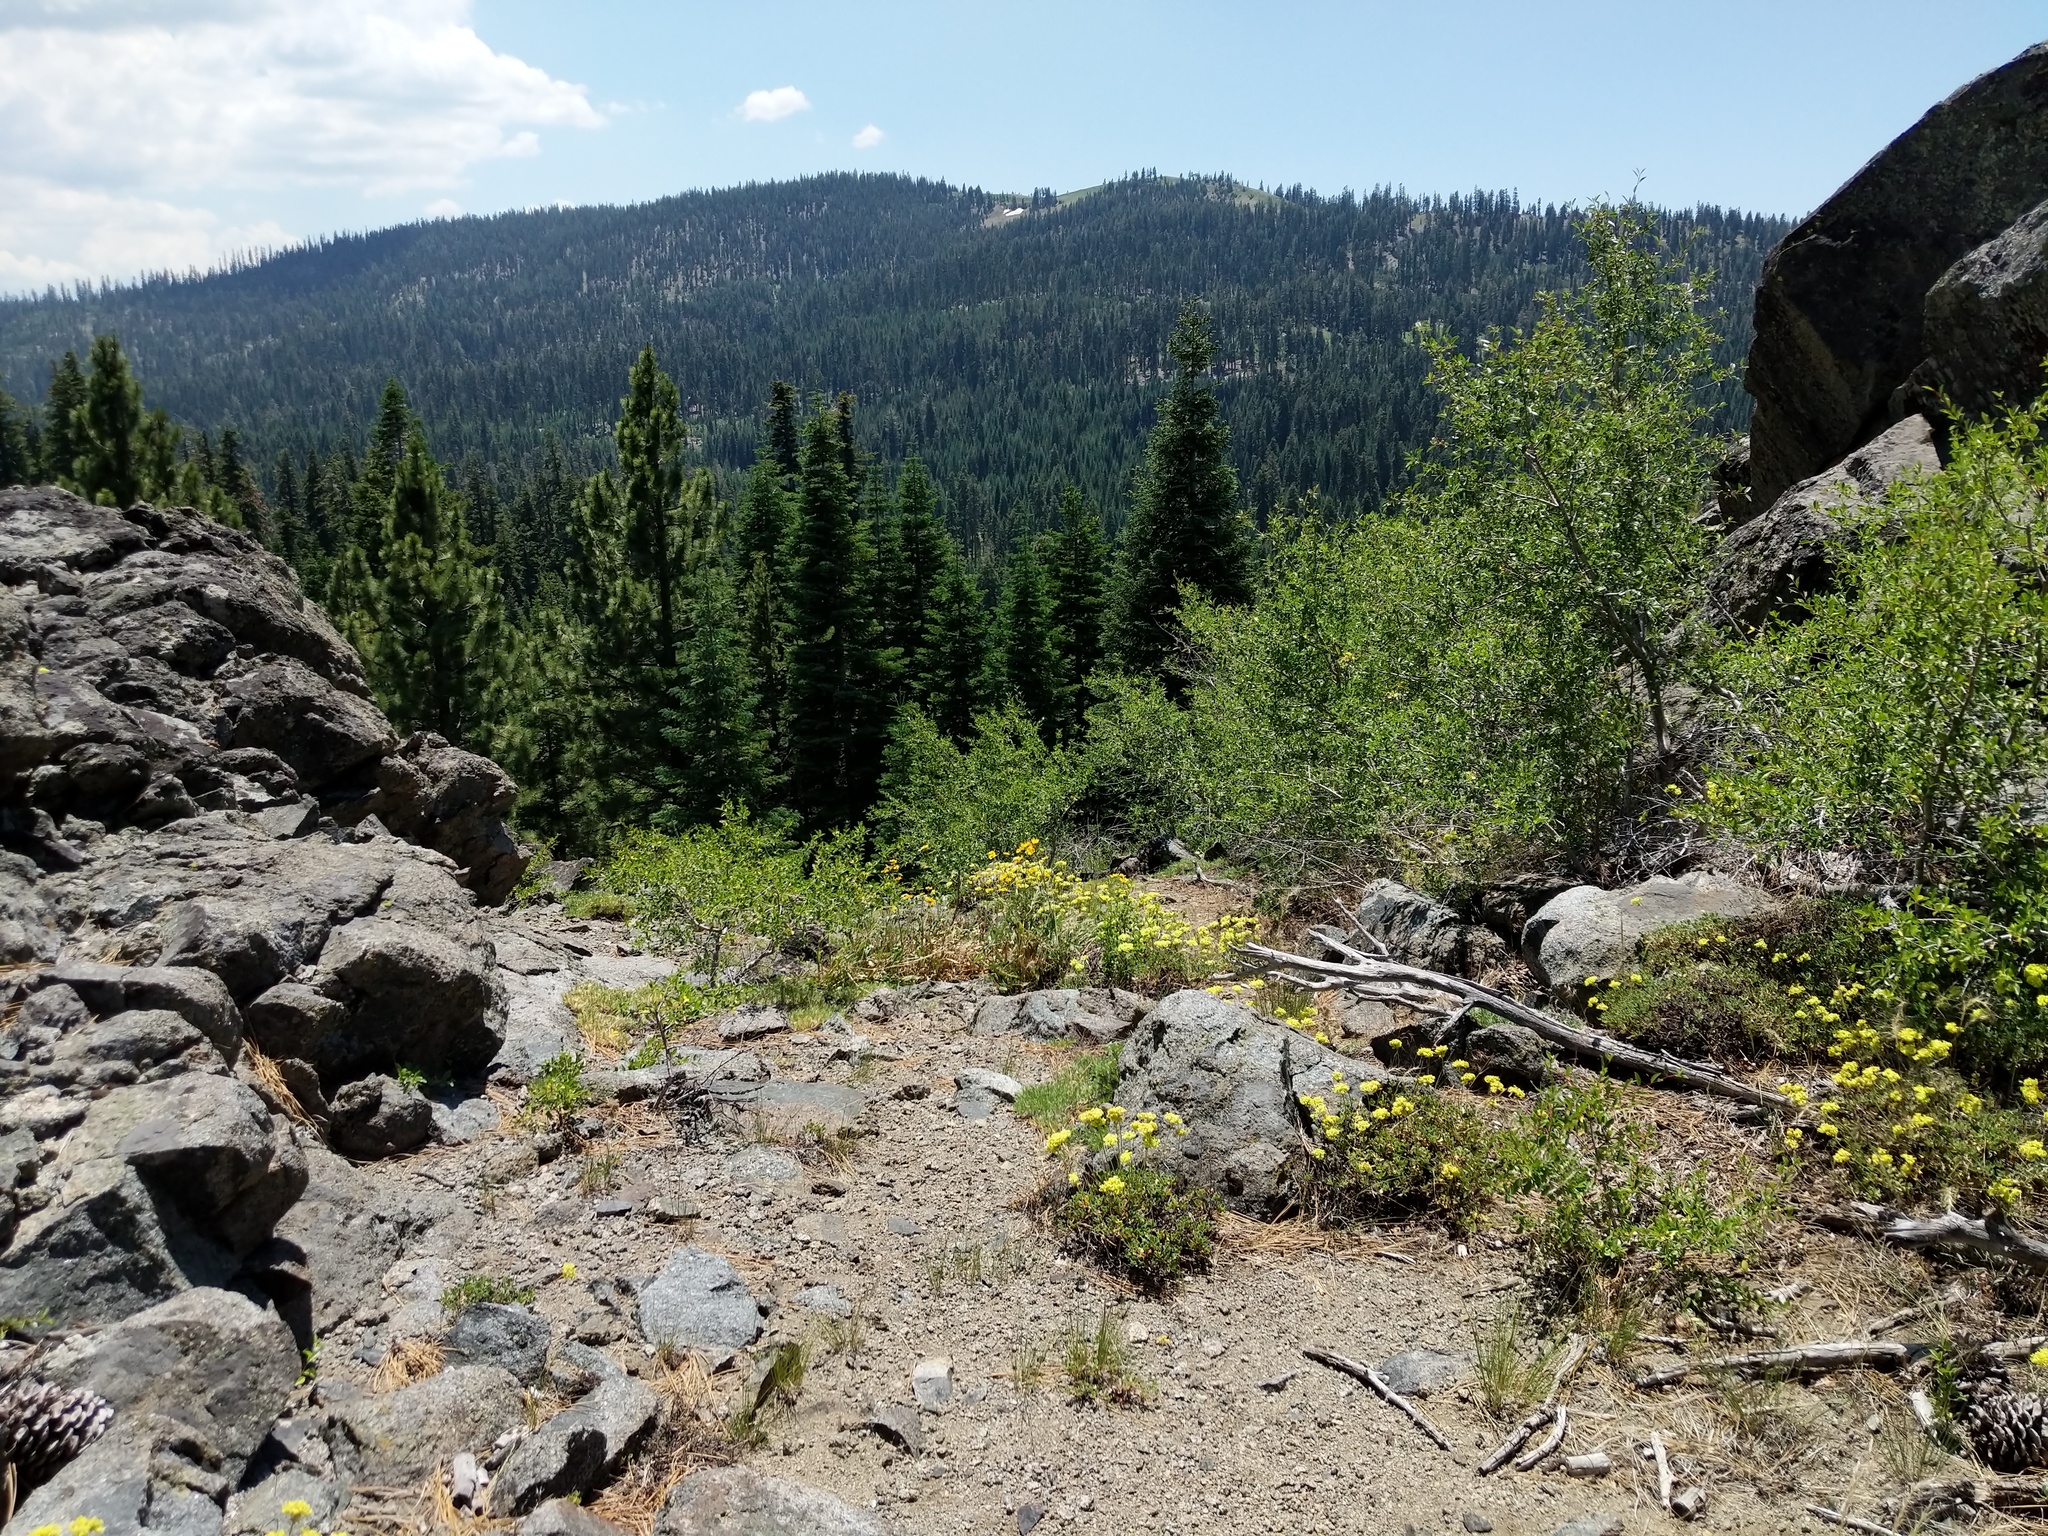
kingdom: Plantae
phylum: Tracheophyta
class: Magnoliopsida
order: Caryophyllales
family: Polygonaceae
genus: Eriogonum
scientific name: Eriogonum umbellatum
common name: Sulfur-buckwheat
